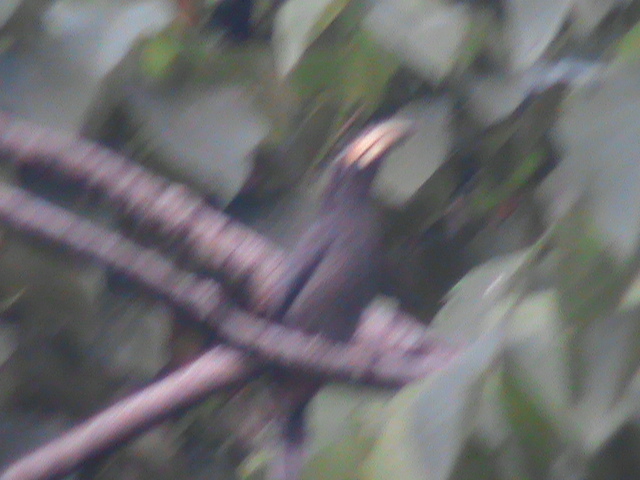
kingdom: Animalia
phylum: Chordata
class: Aves
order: Bucerotiformes
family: Bucerotidae
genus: Ocyceros
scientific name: Ocyceros griseus
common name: Malabar grey hornbill
